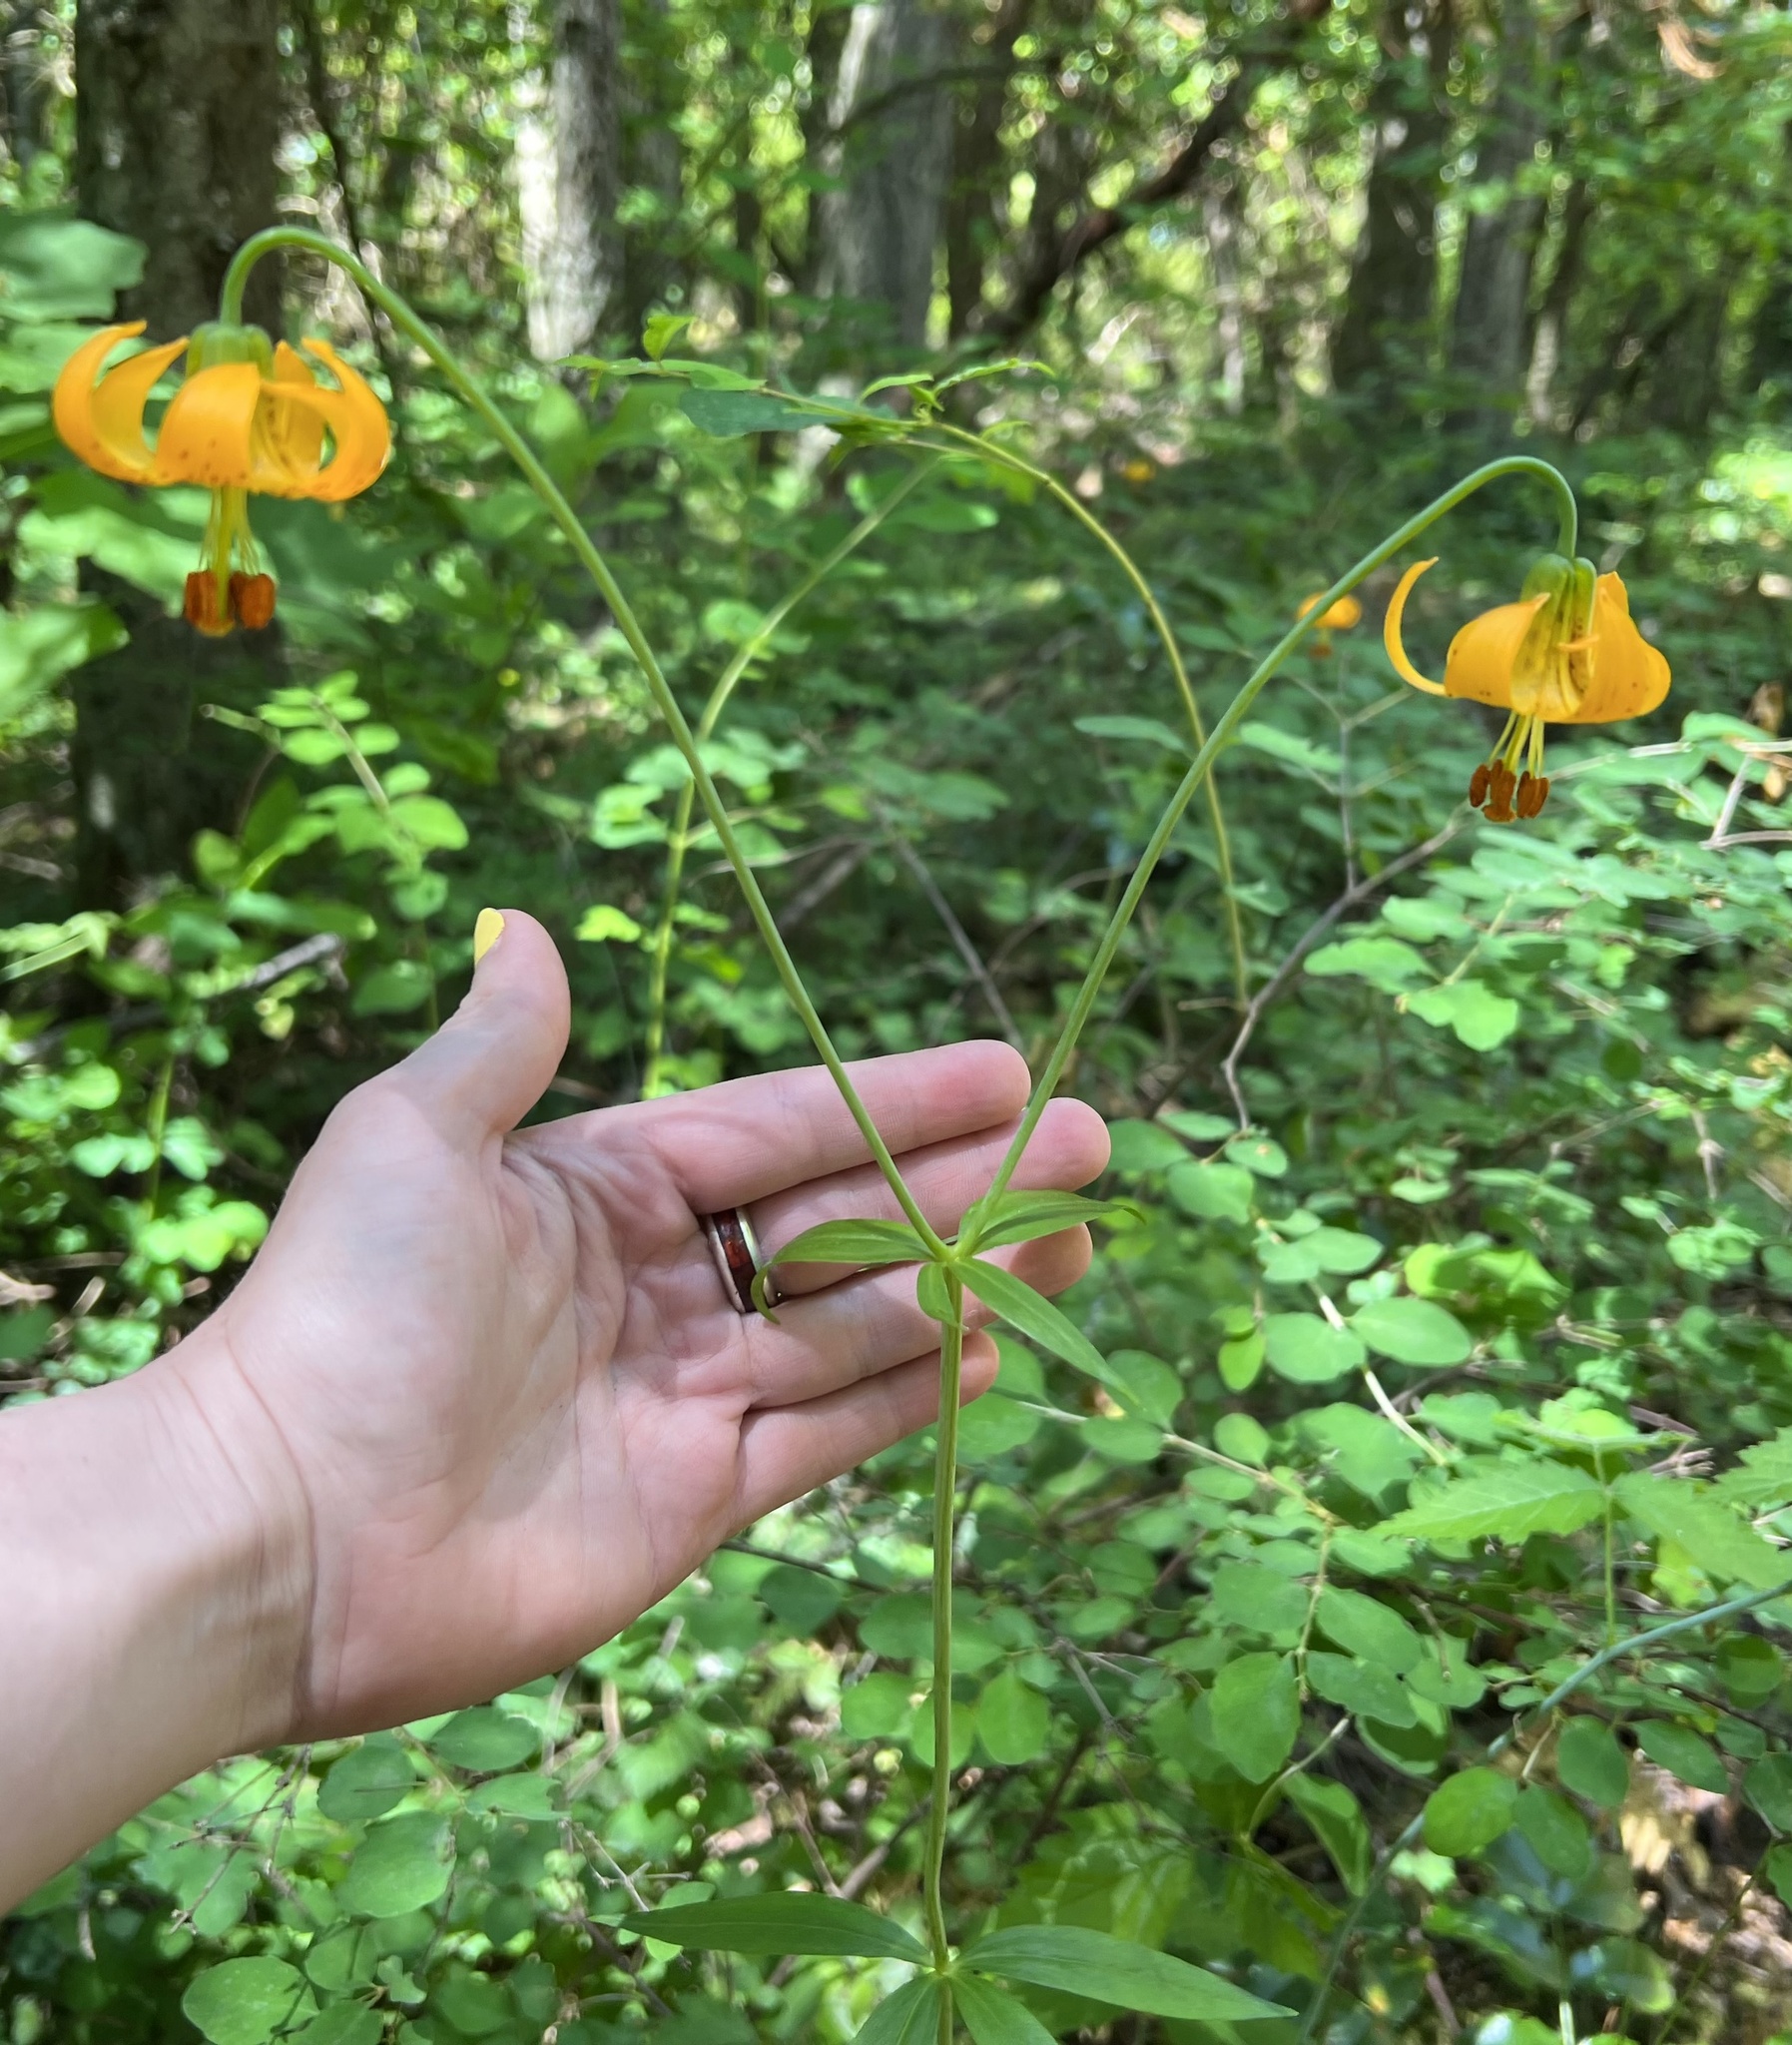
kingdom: Plantae
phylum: Tracheophyta
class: Liliopsida
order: Liliales
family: Liliaceae
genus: Lilium
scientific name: Lilium columbianum
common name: Columbia lily
